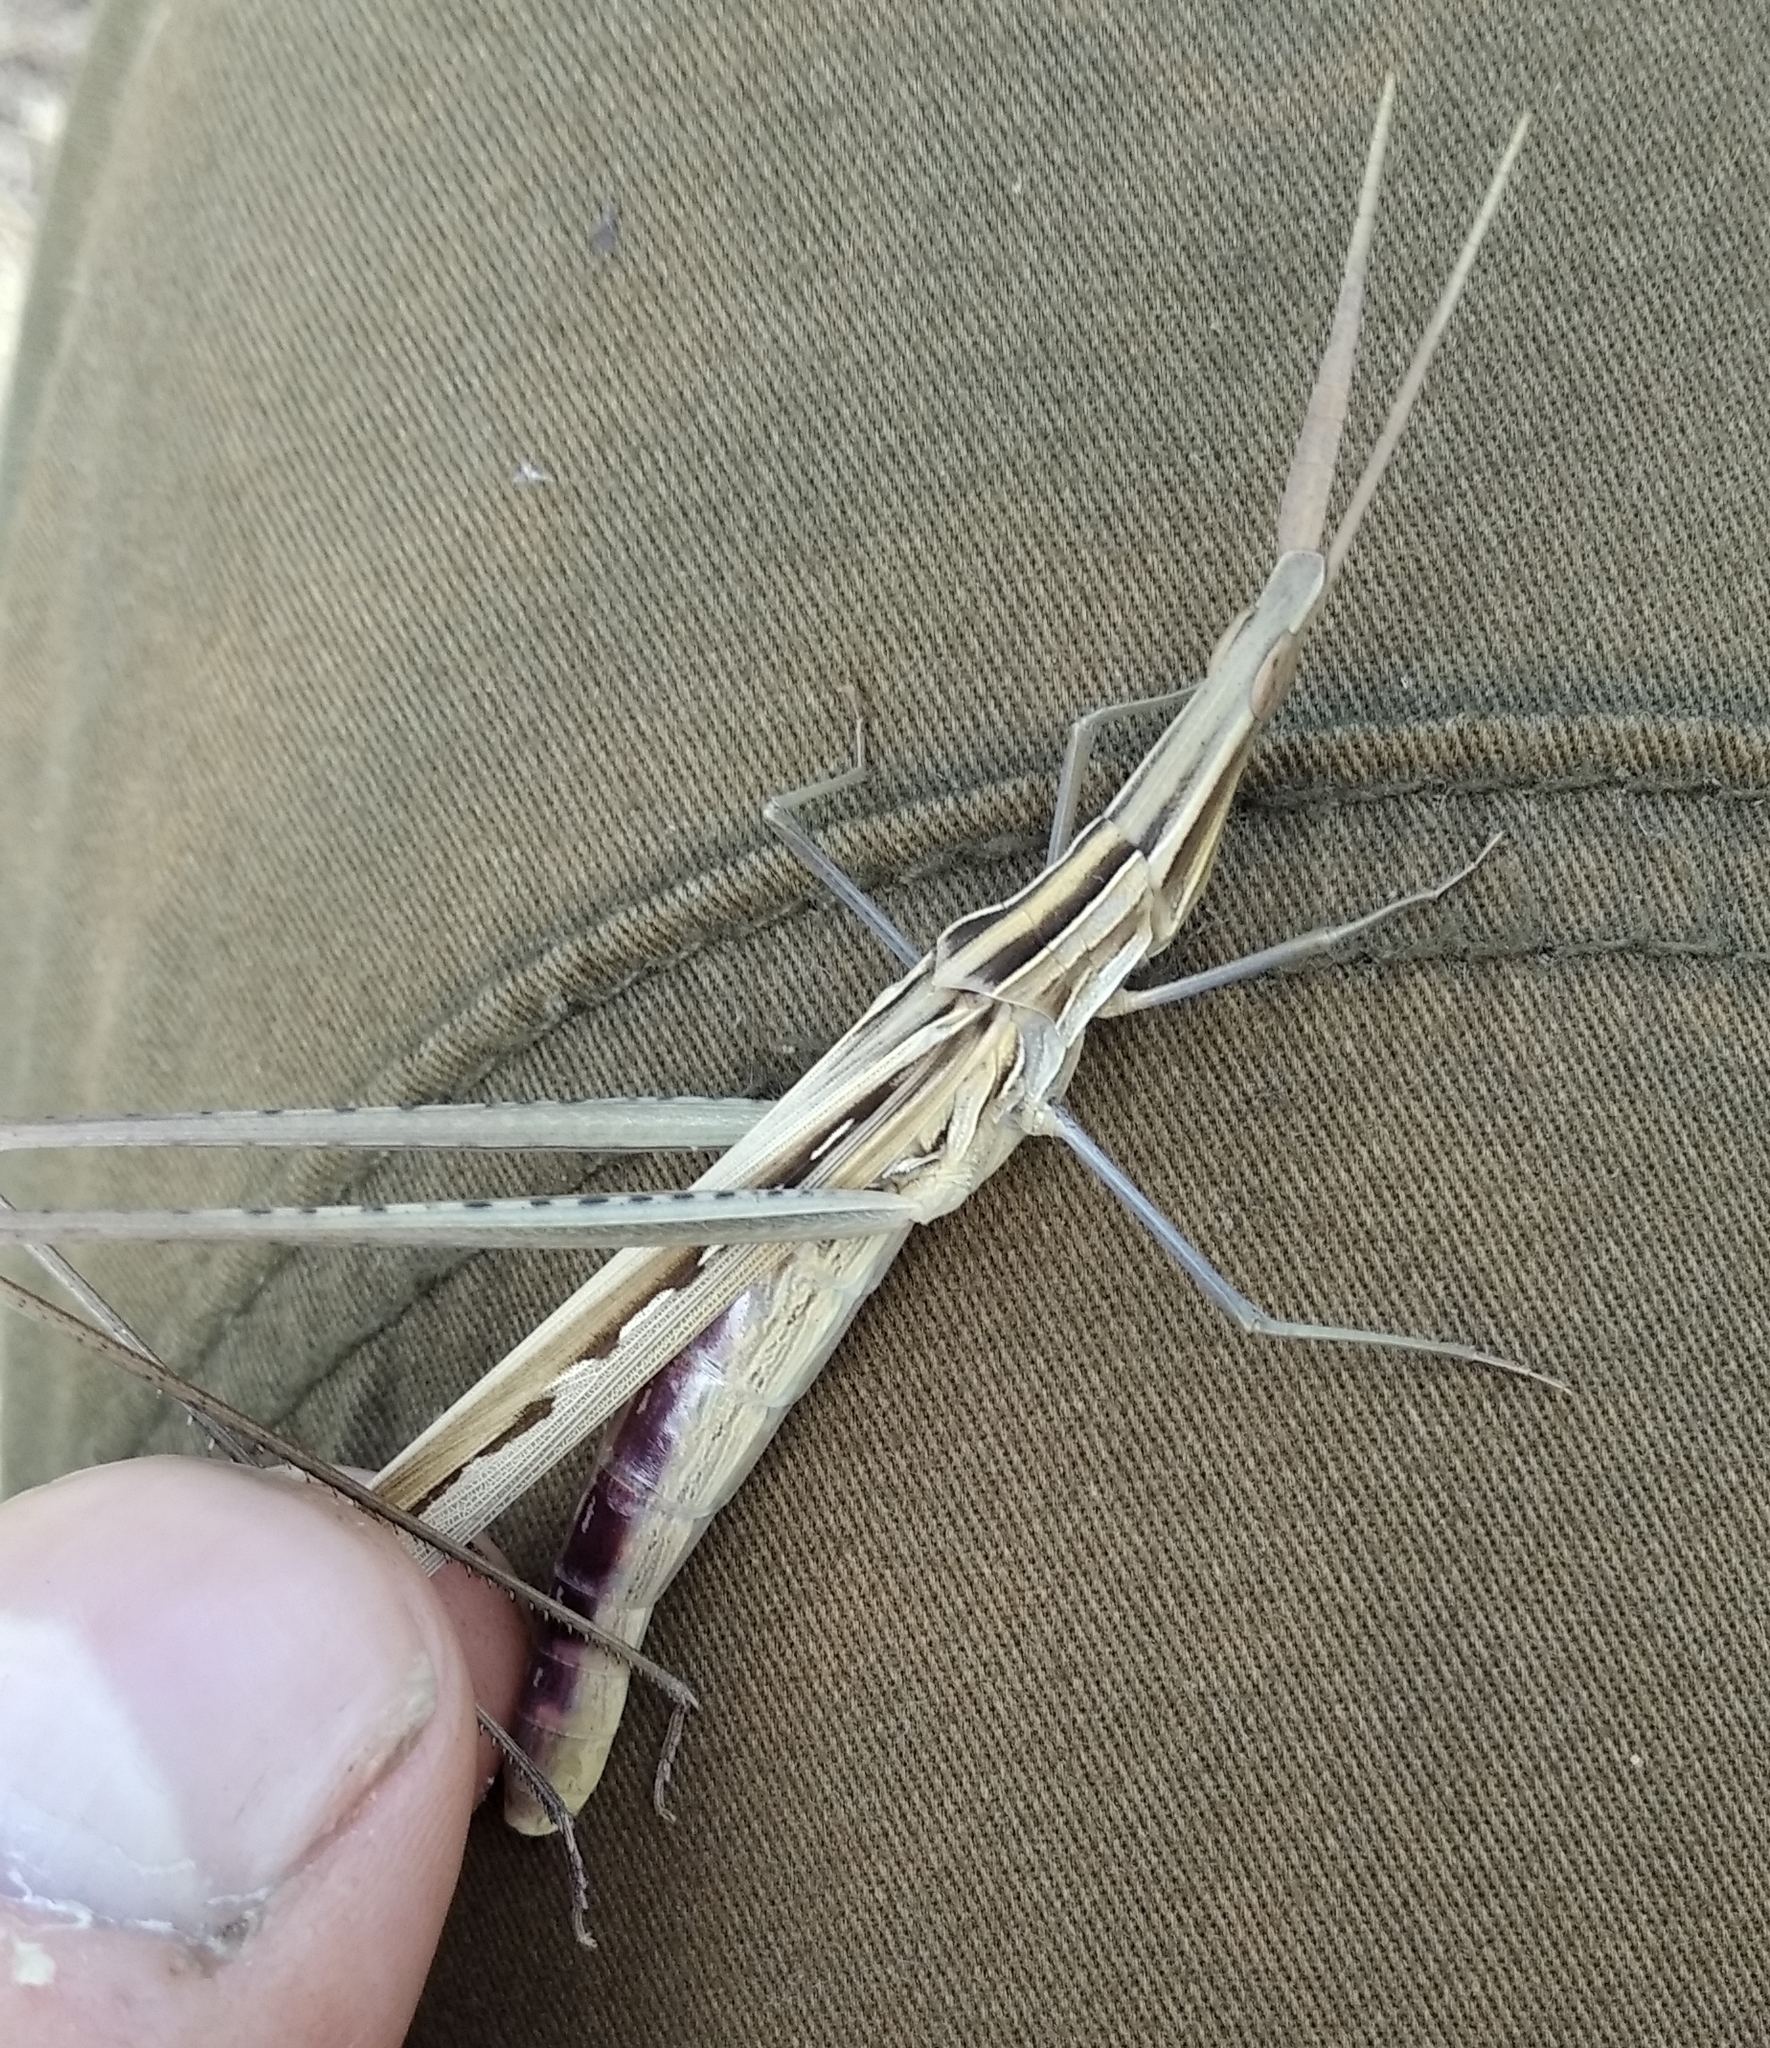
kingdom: Animalia
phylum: Arthropoda
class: Insecta
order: Orthoptera
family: Acrididae
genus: Acrida
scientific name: Acrida ungarica
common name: Common cone-headed grasshopper
